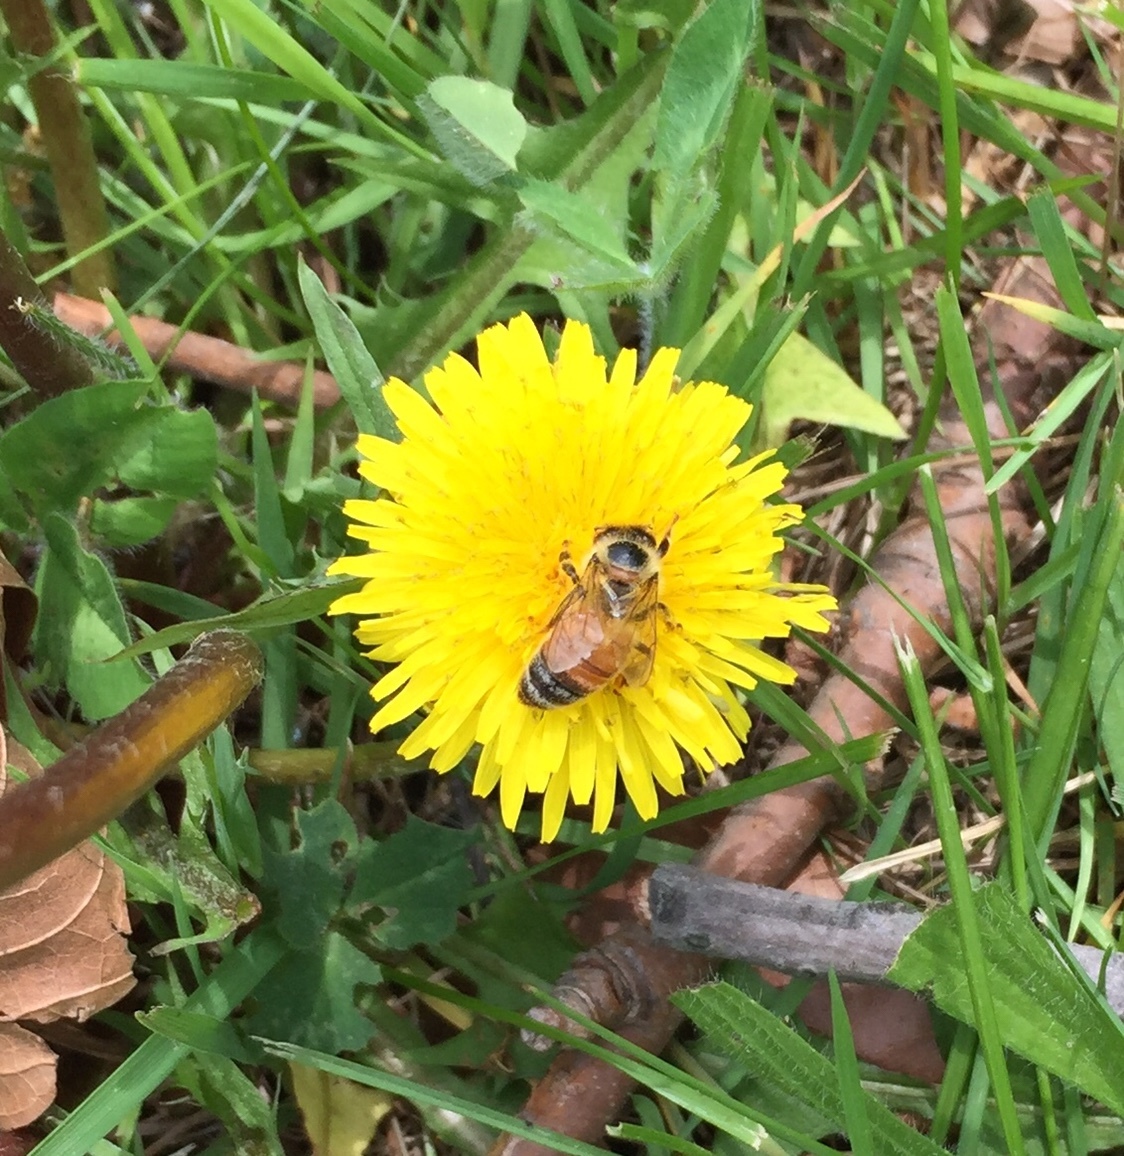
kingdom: Animalia
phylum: Arthropoda
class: Insecta
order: Hymenoptera
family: Apidae
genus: Apis
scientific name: Apis mellifera
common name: Honey bee
